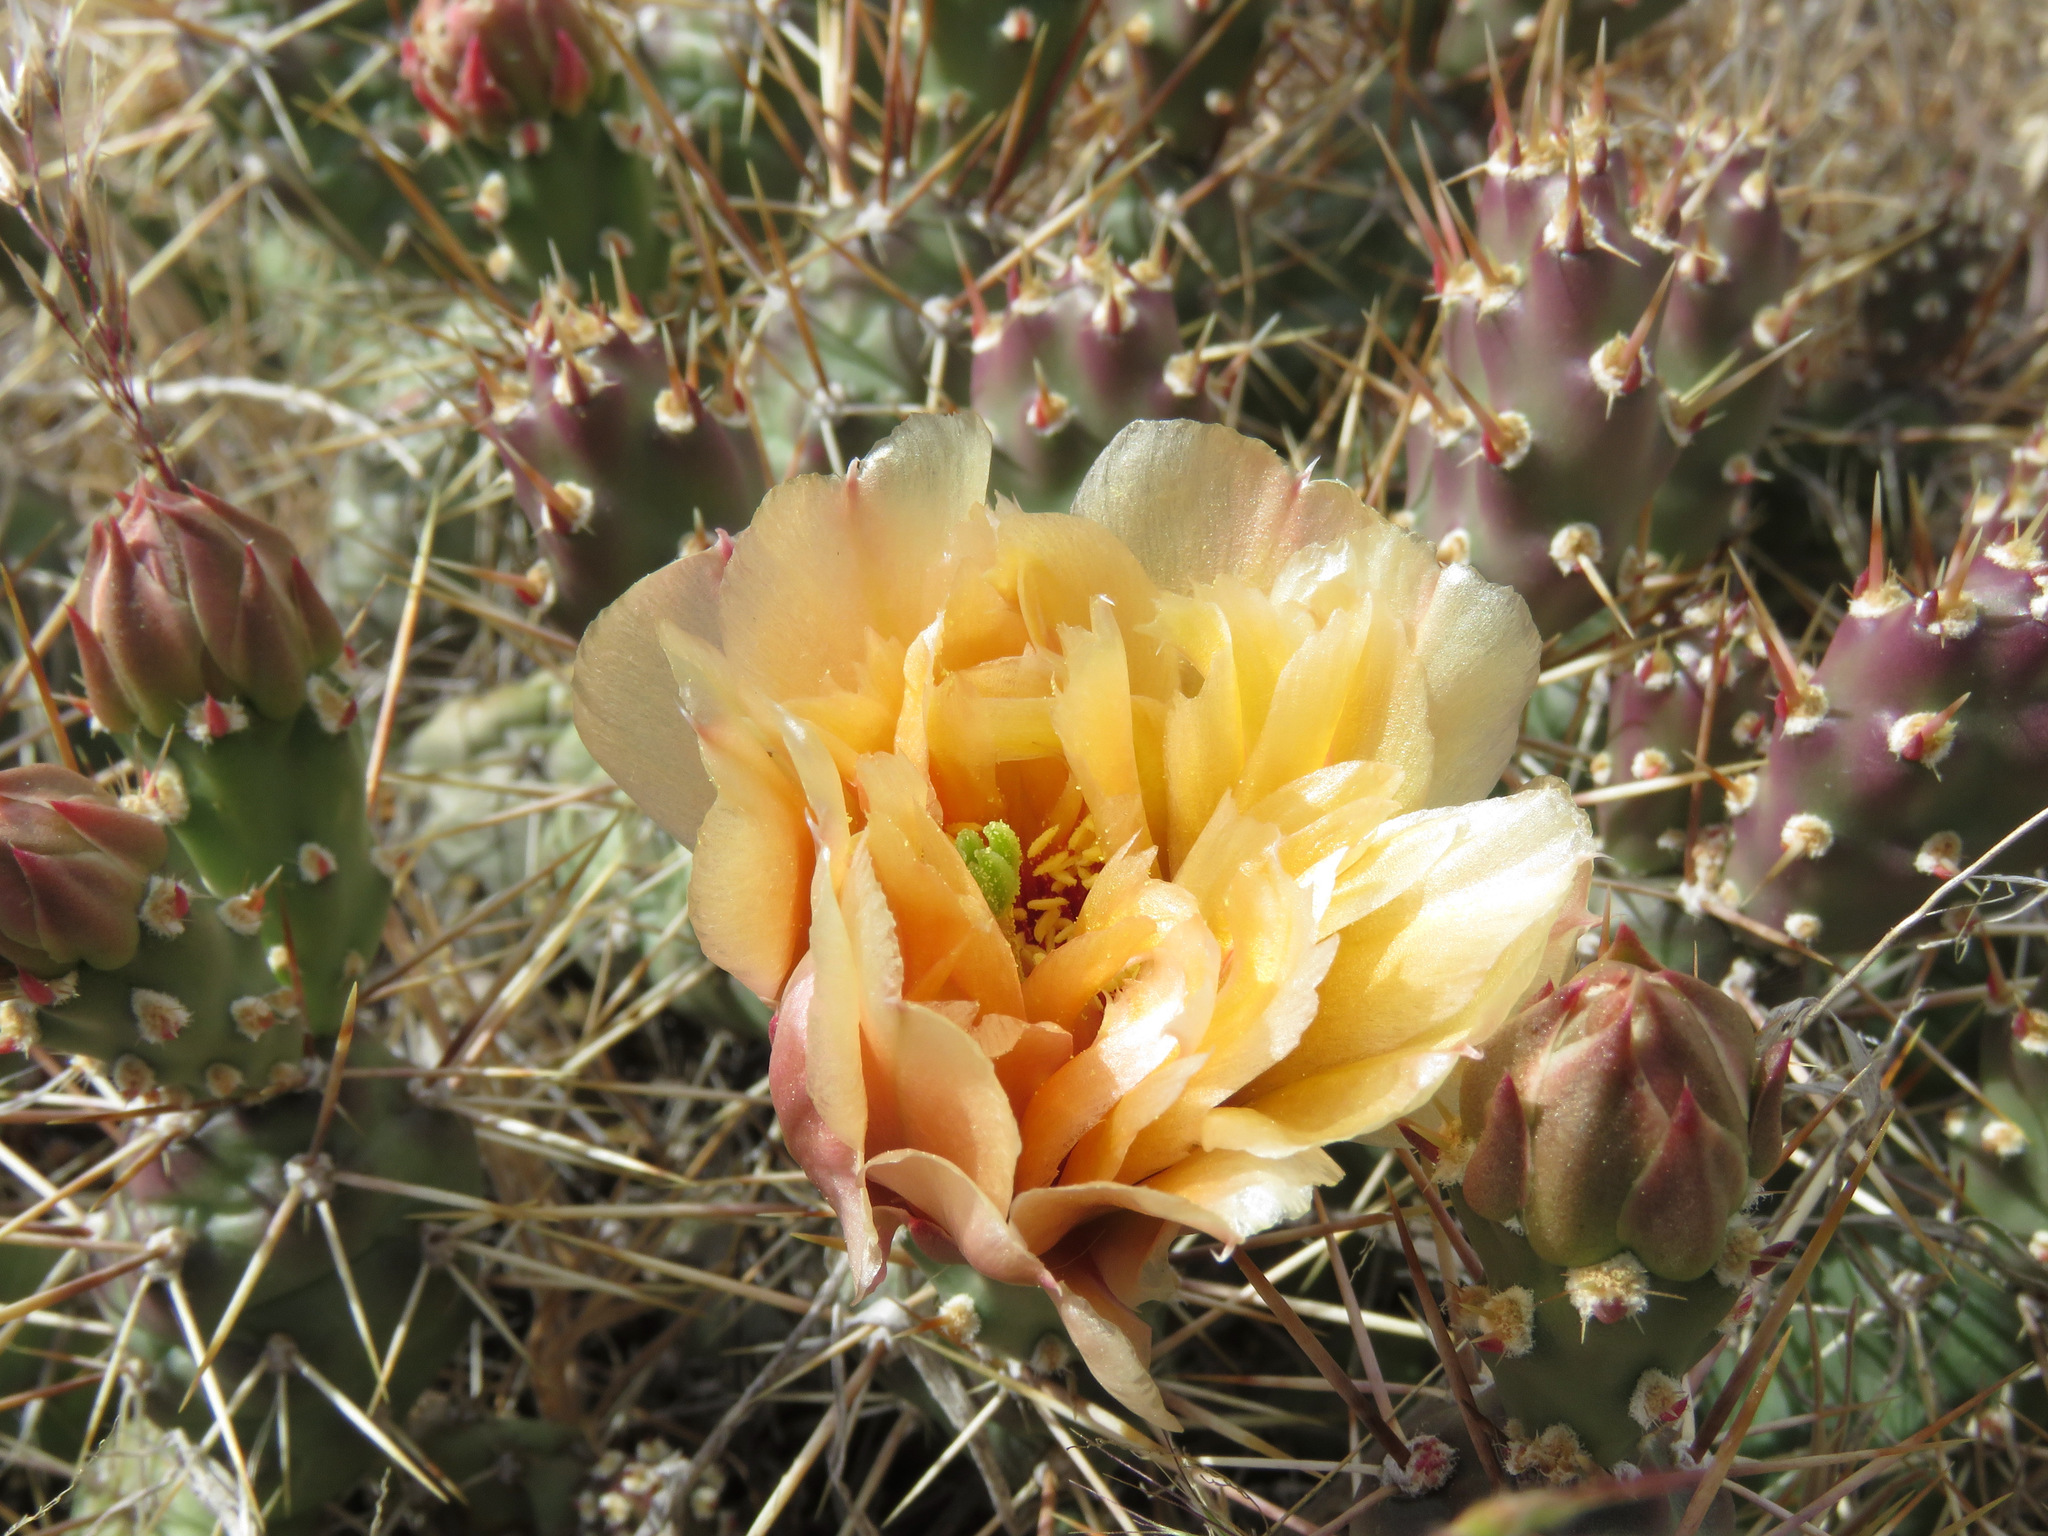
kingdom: Plantae
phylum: Tracheophyta
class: Magnoliopsida
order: Caryophyllales
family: Cactaceae
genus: Opuntia
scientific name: Opuntia fragilis
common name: Brittle cactus
